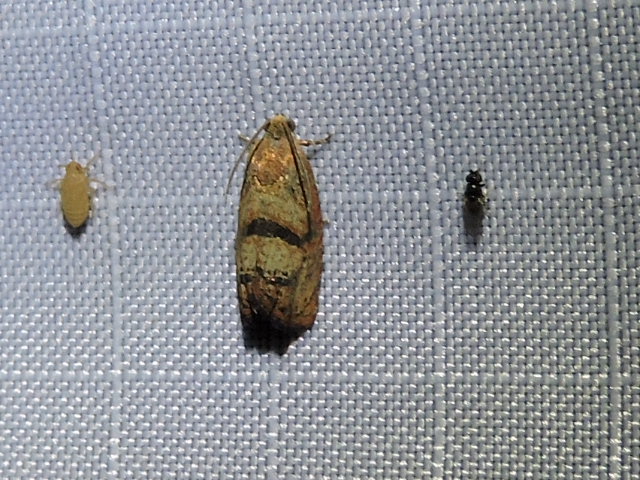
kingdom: Animalia
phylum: Arthropoda
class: Insecta
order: Lepidoptera
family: Tortricidae
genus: Cydia
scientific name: Cydia latiferreana
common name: Filbertworm moth
